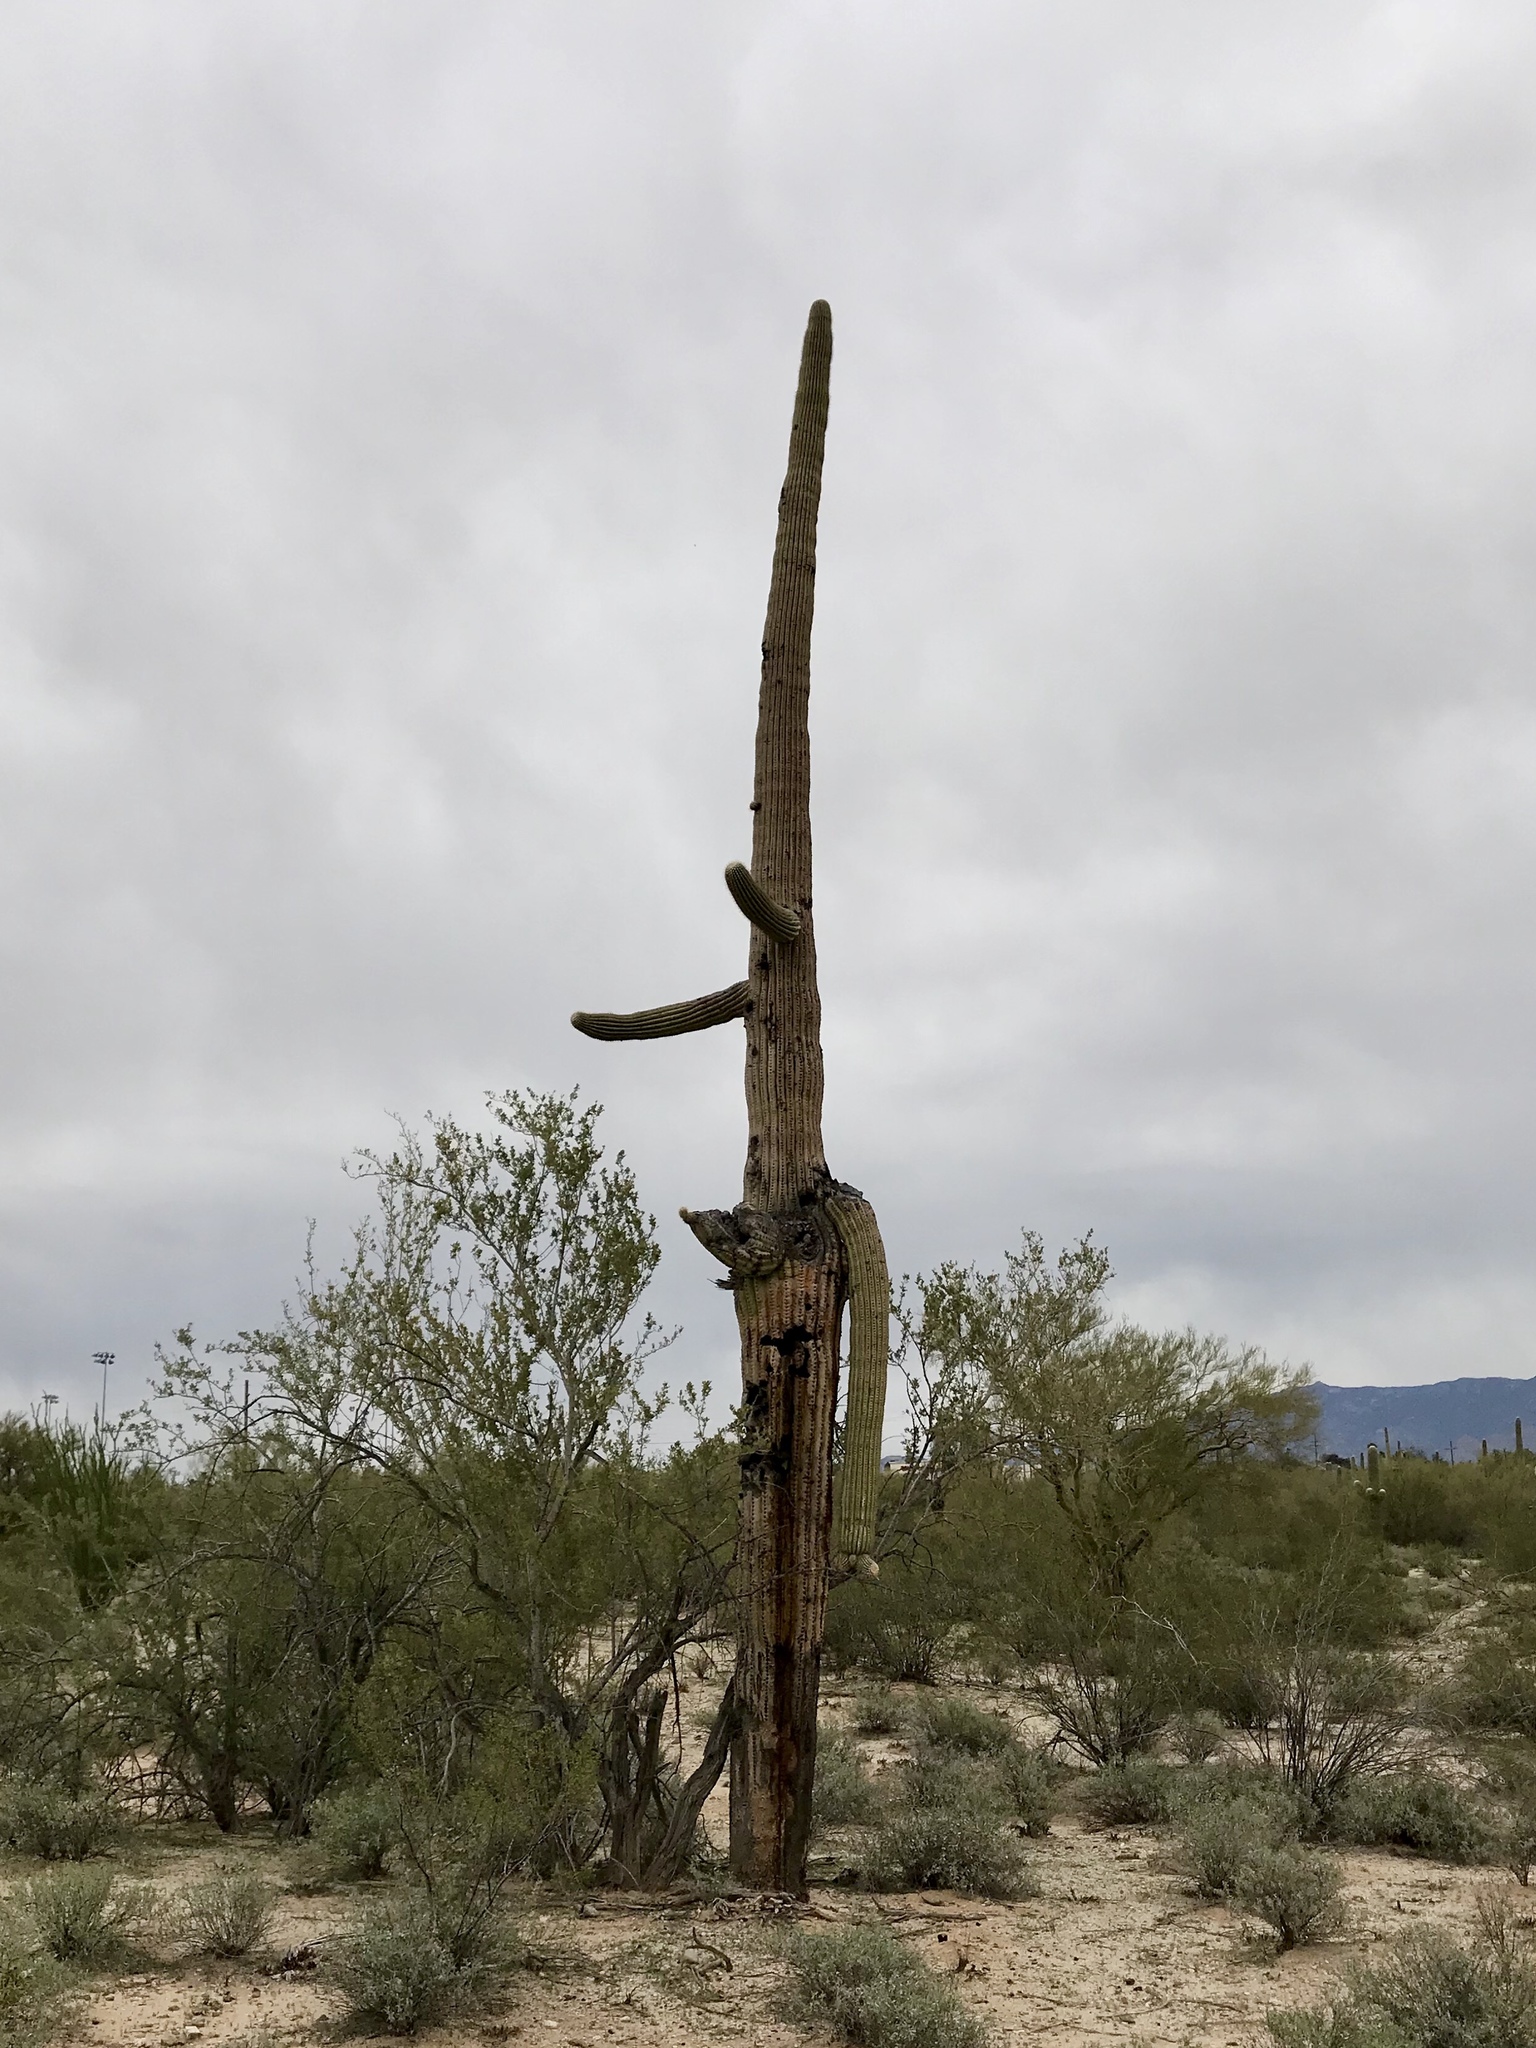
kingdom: Plantae
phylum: Tracheophyta
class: Magnoliopsida
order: Caryophyllales
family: Cactaceae
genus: Carnegiea
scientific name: Carnegiea gigantea
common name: Saguaro
